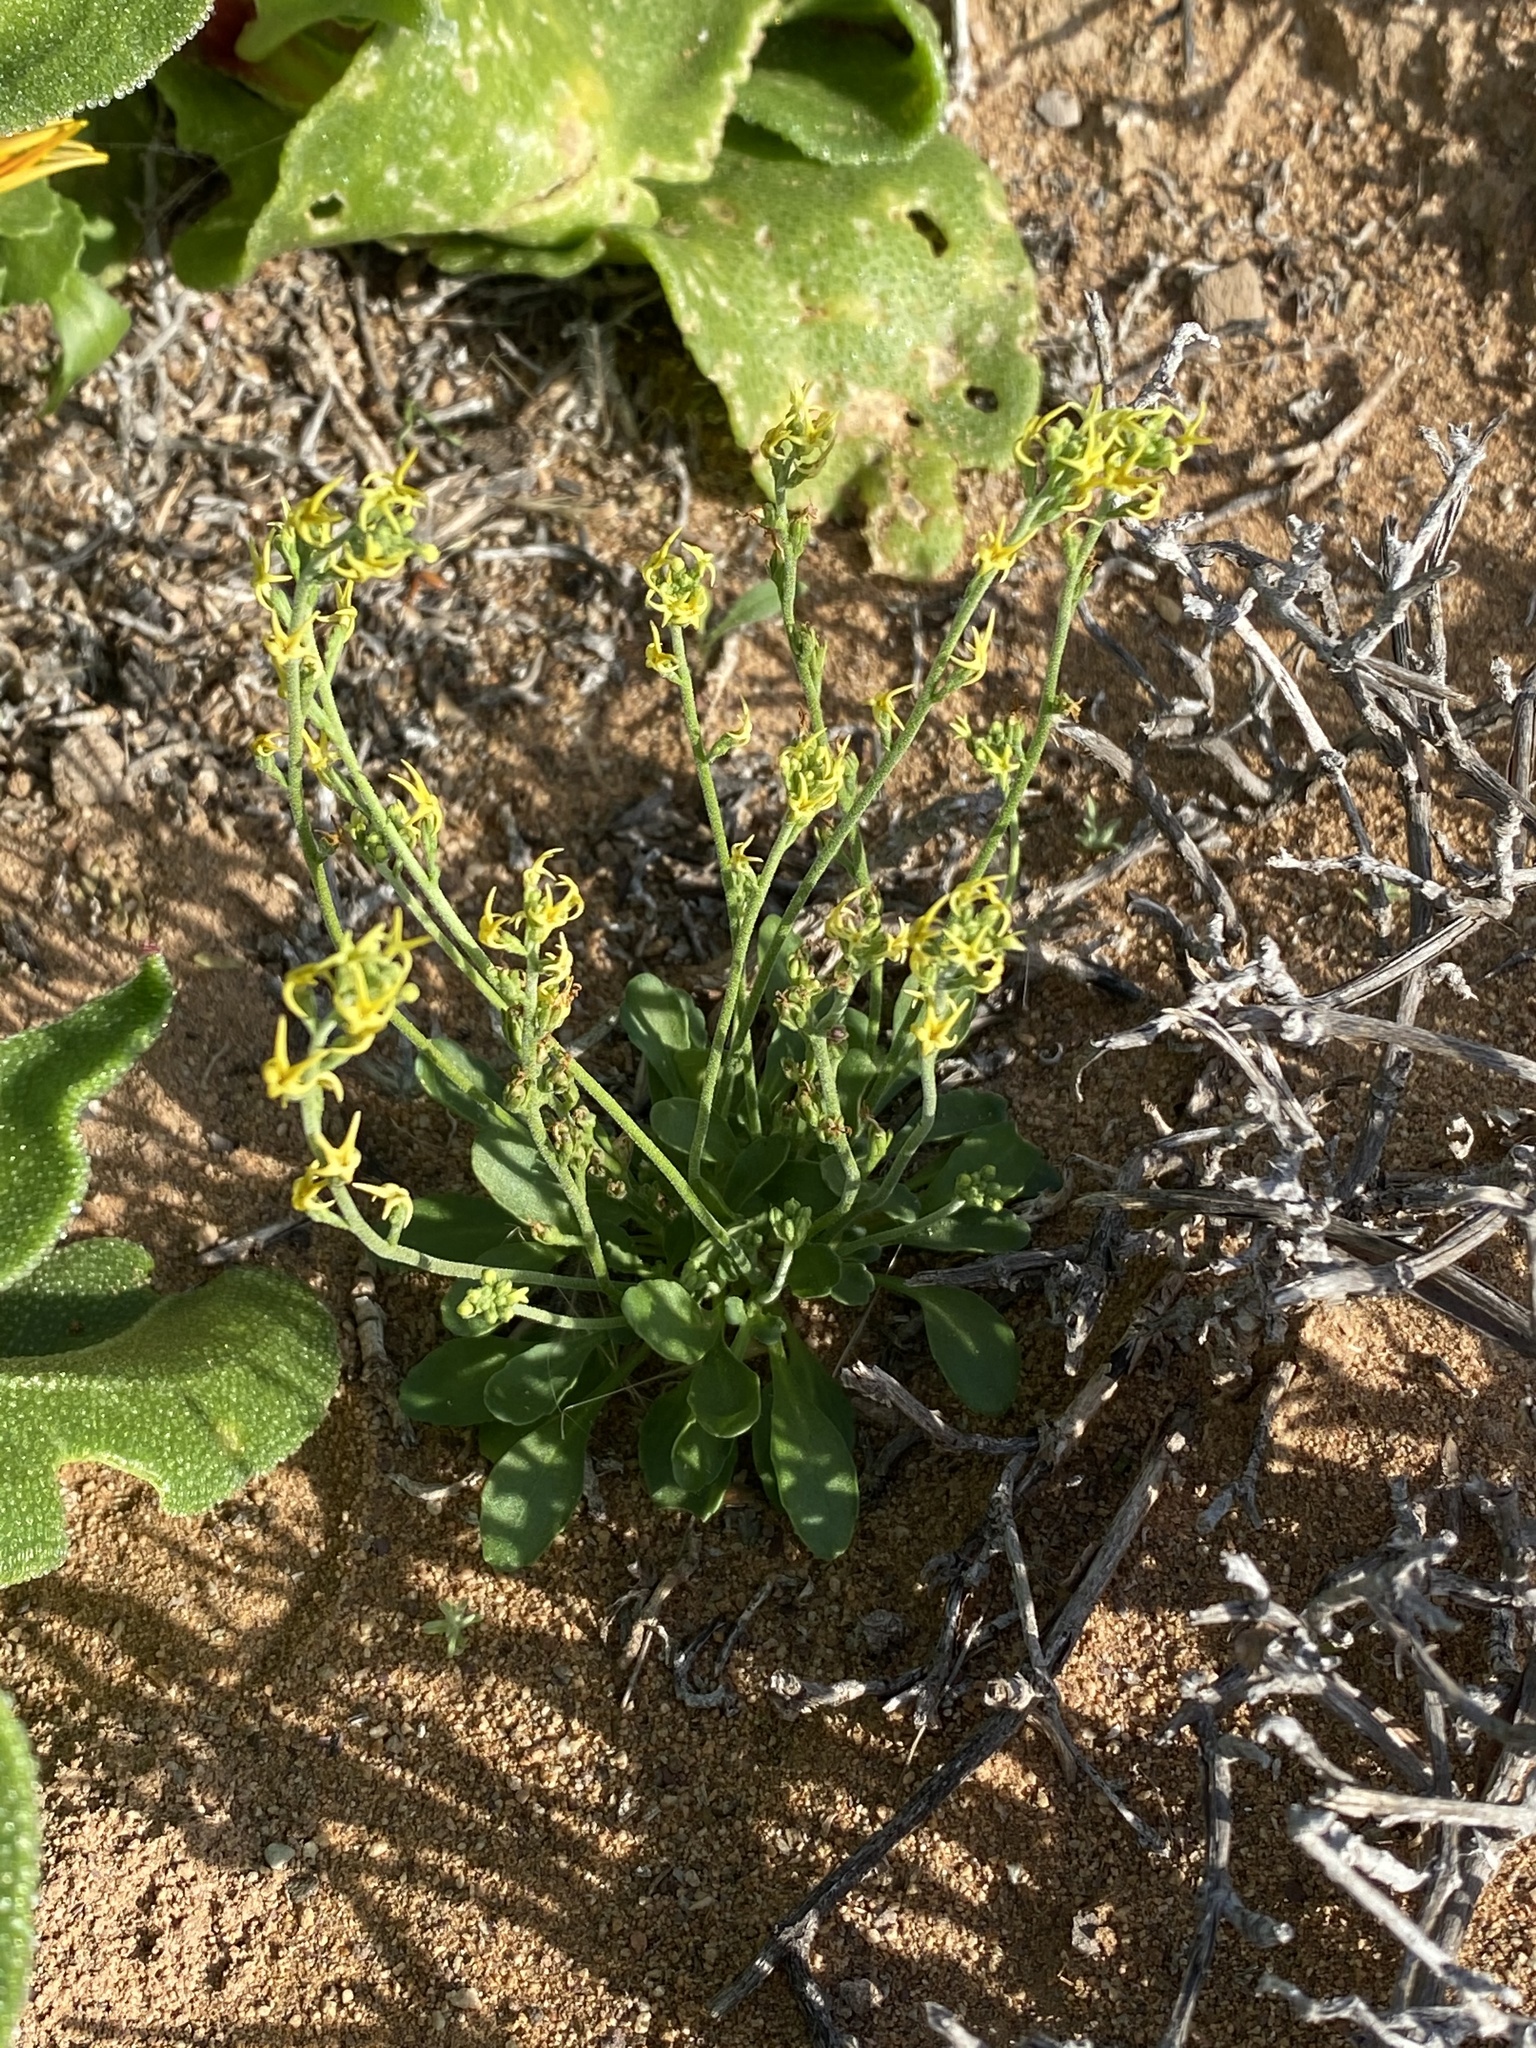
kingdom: Plantae
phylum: Tracheophyta
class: Magnoliopsida
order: Lamiales
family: Scrophulariaceae
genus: Manulea
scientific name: Manulea karrooica
